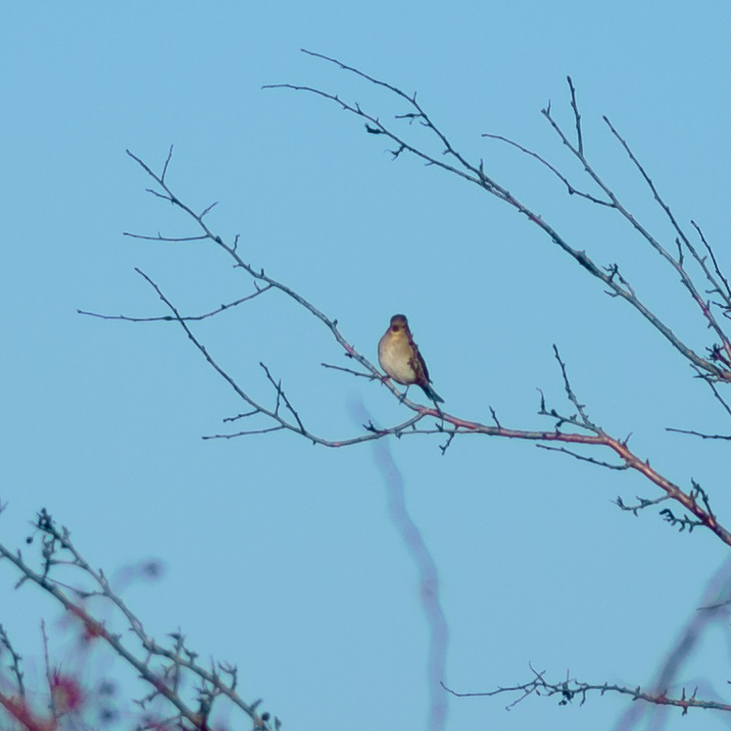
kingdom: Animalia
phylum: Chordata
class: Aves
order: Passeriformes
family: Fringillidae
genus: Fringilla
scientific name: Fringilla coelebs
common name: Common chaffinch
